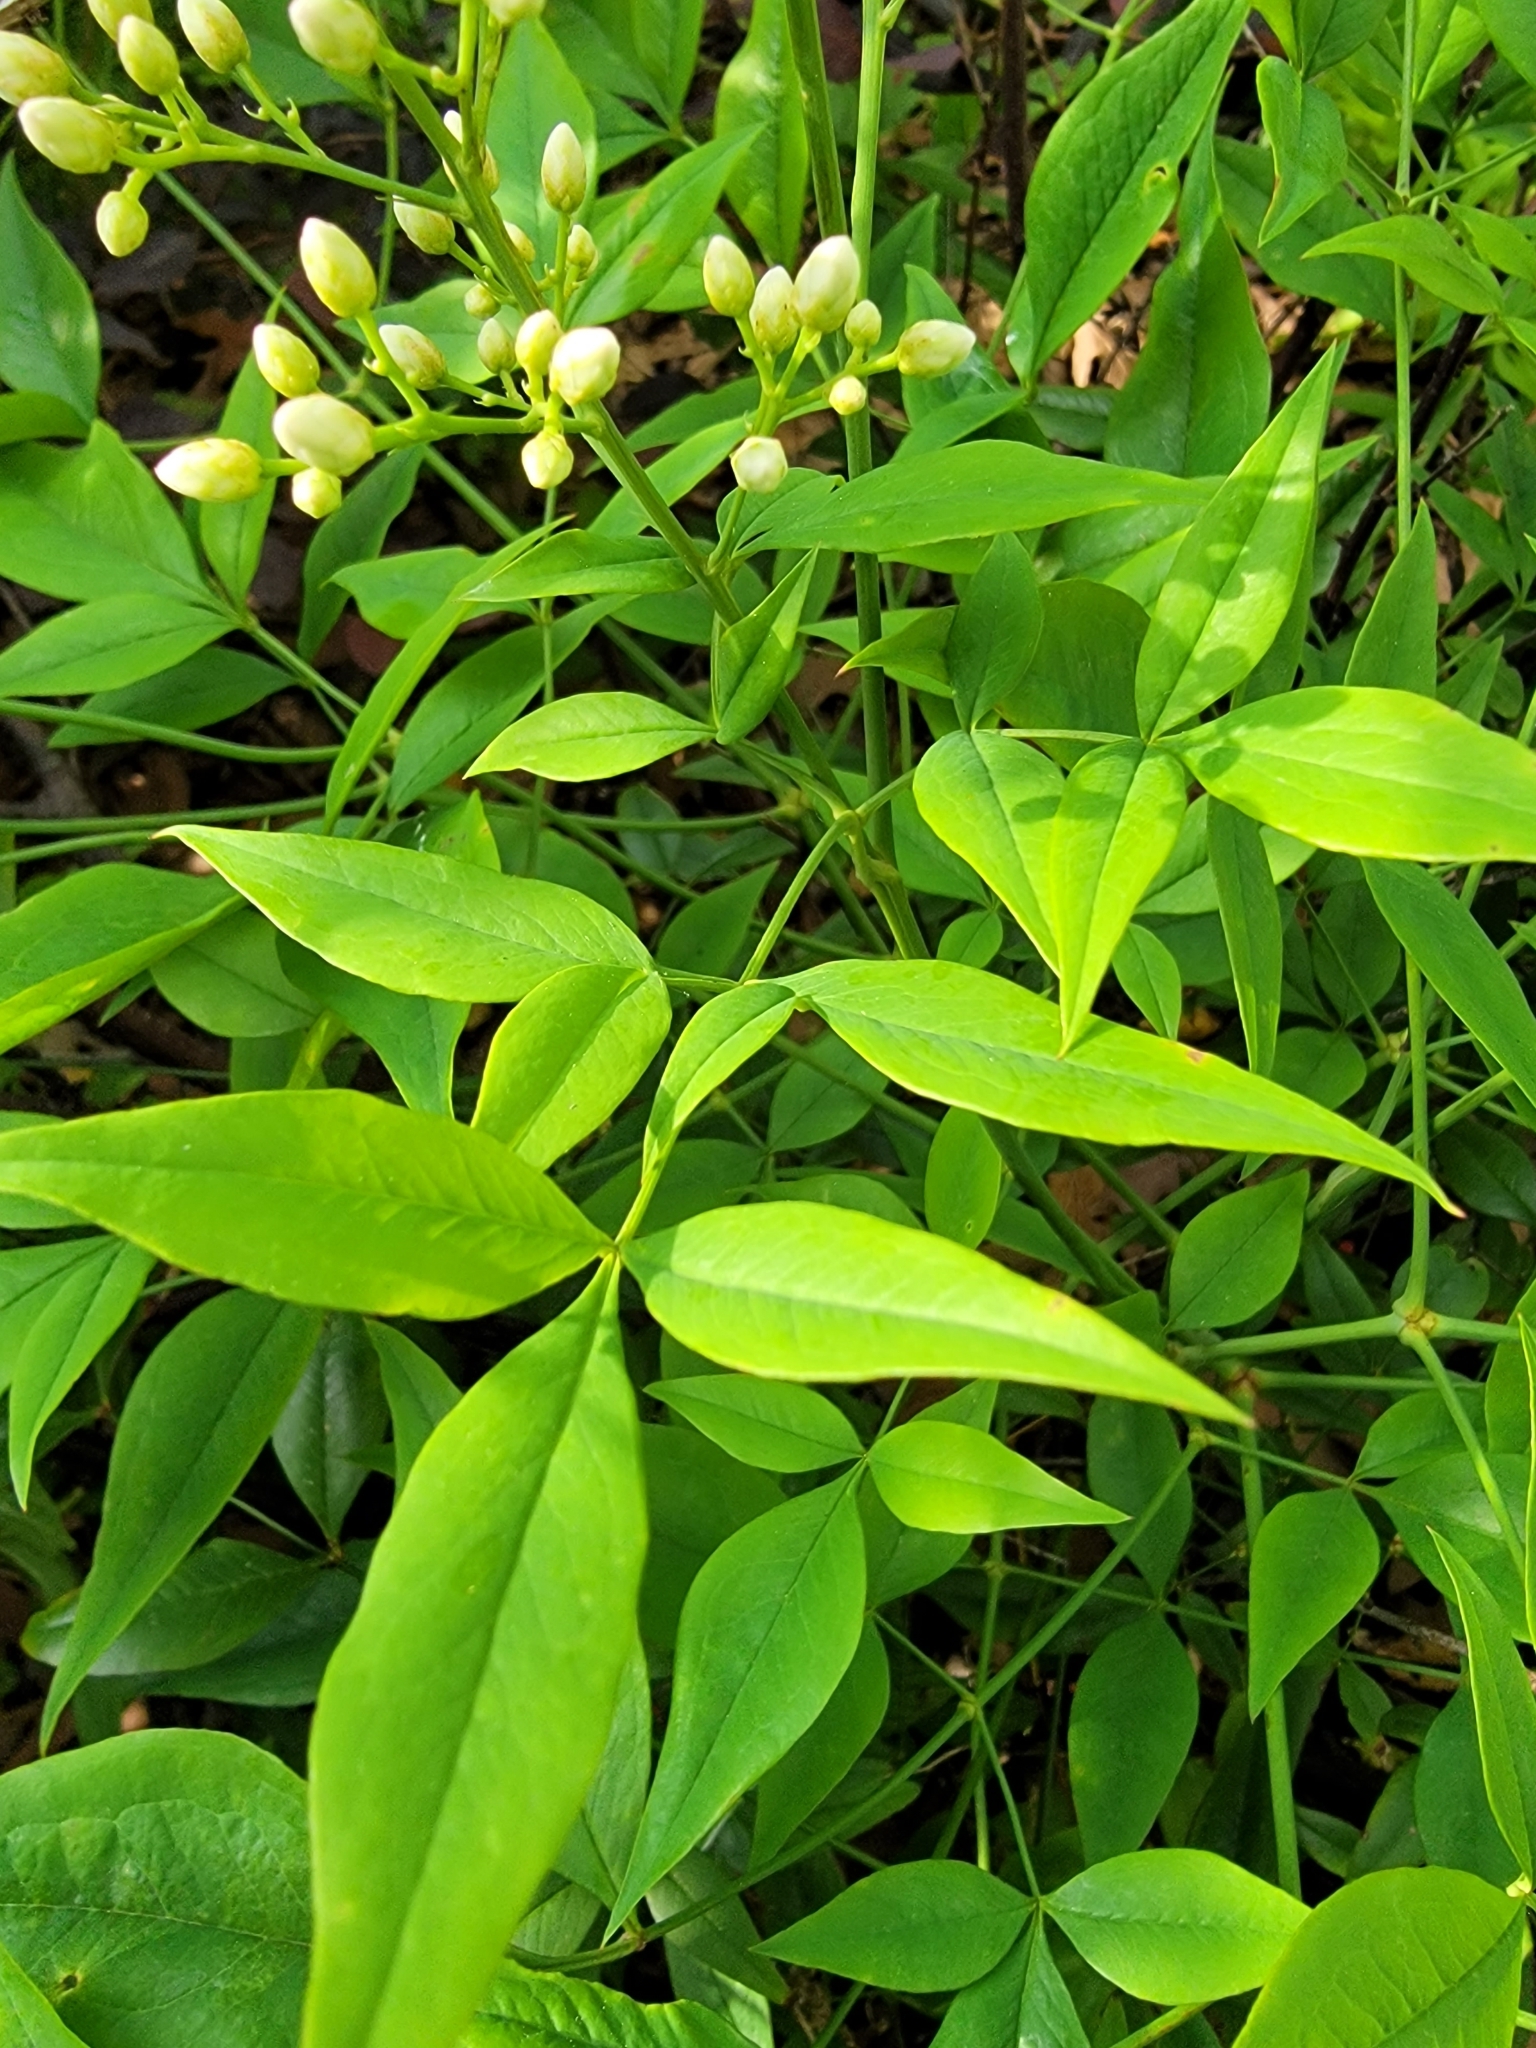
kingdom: Plantae
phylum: Tracheophyta
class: Magnoliopsida
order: Ranunculales
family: Berberidaceae
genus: Nandina
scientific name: Nandina domestica
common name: Sacred bamboo
